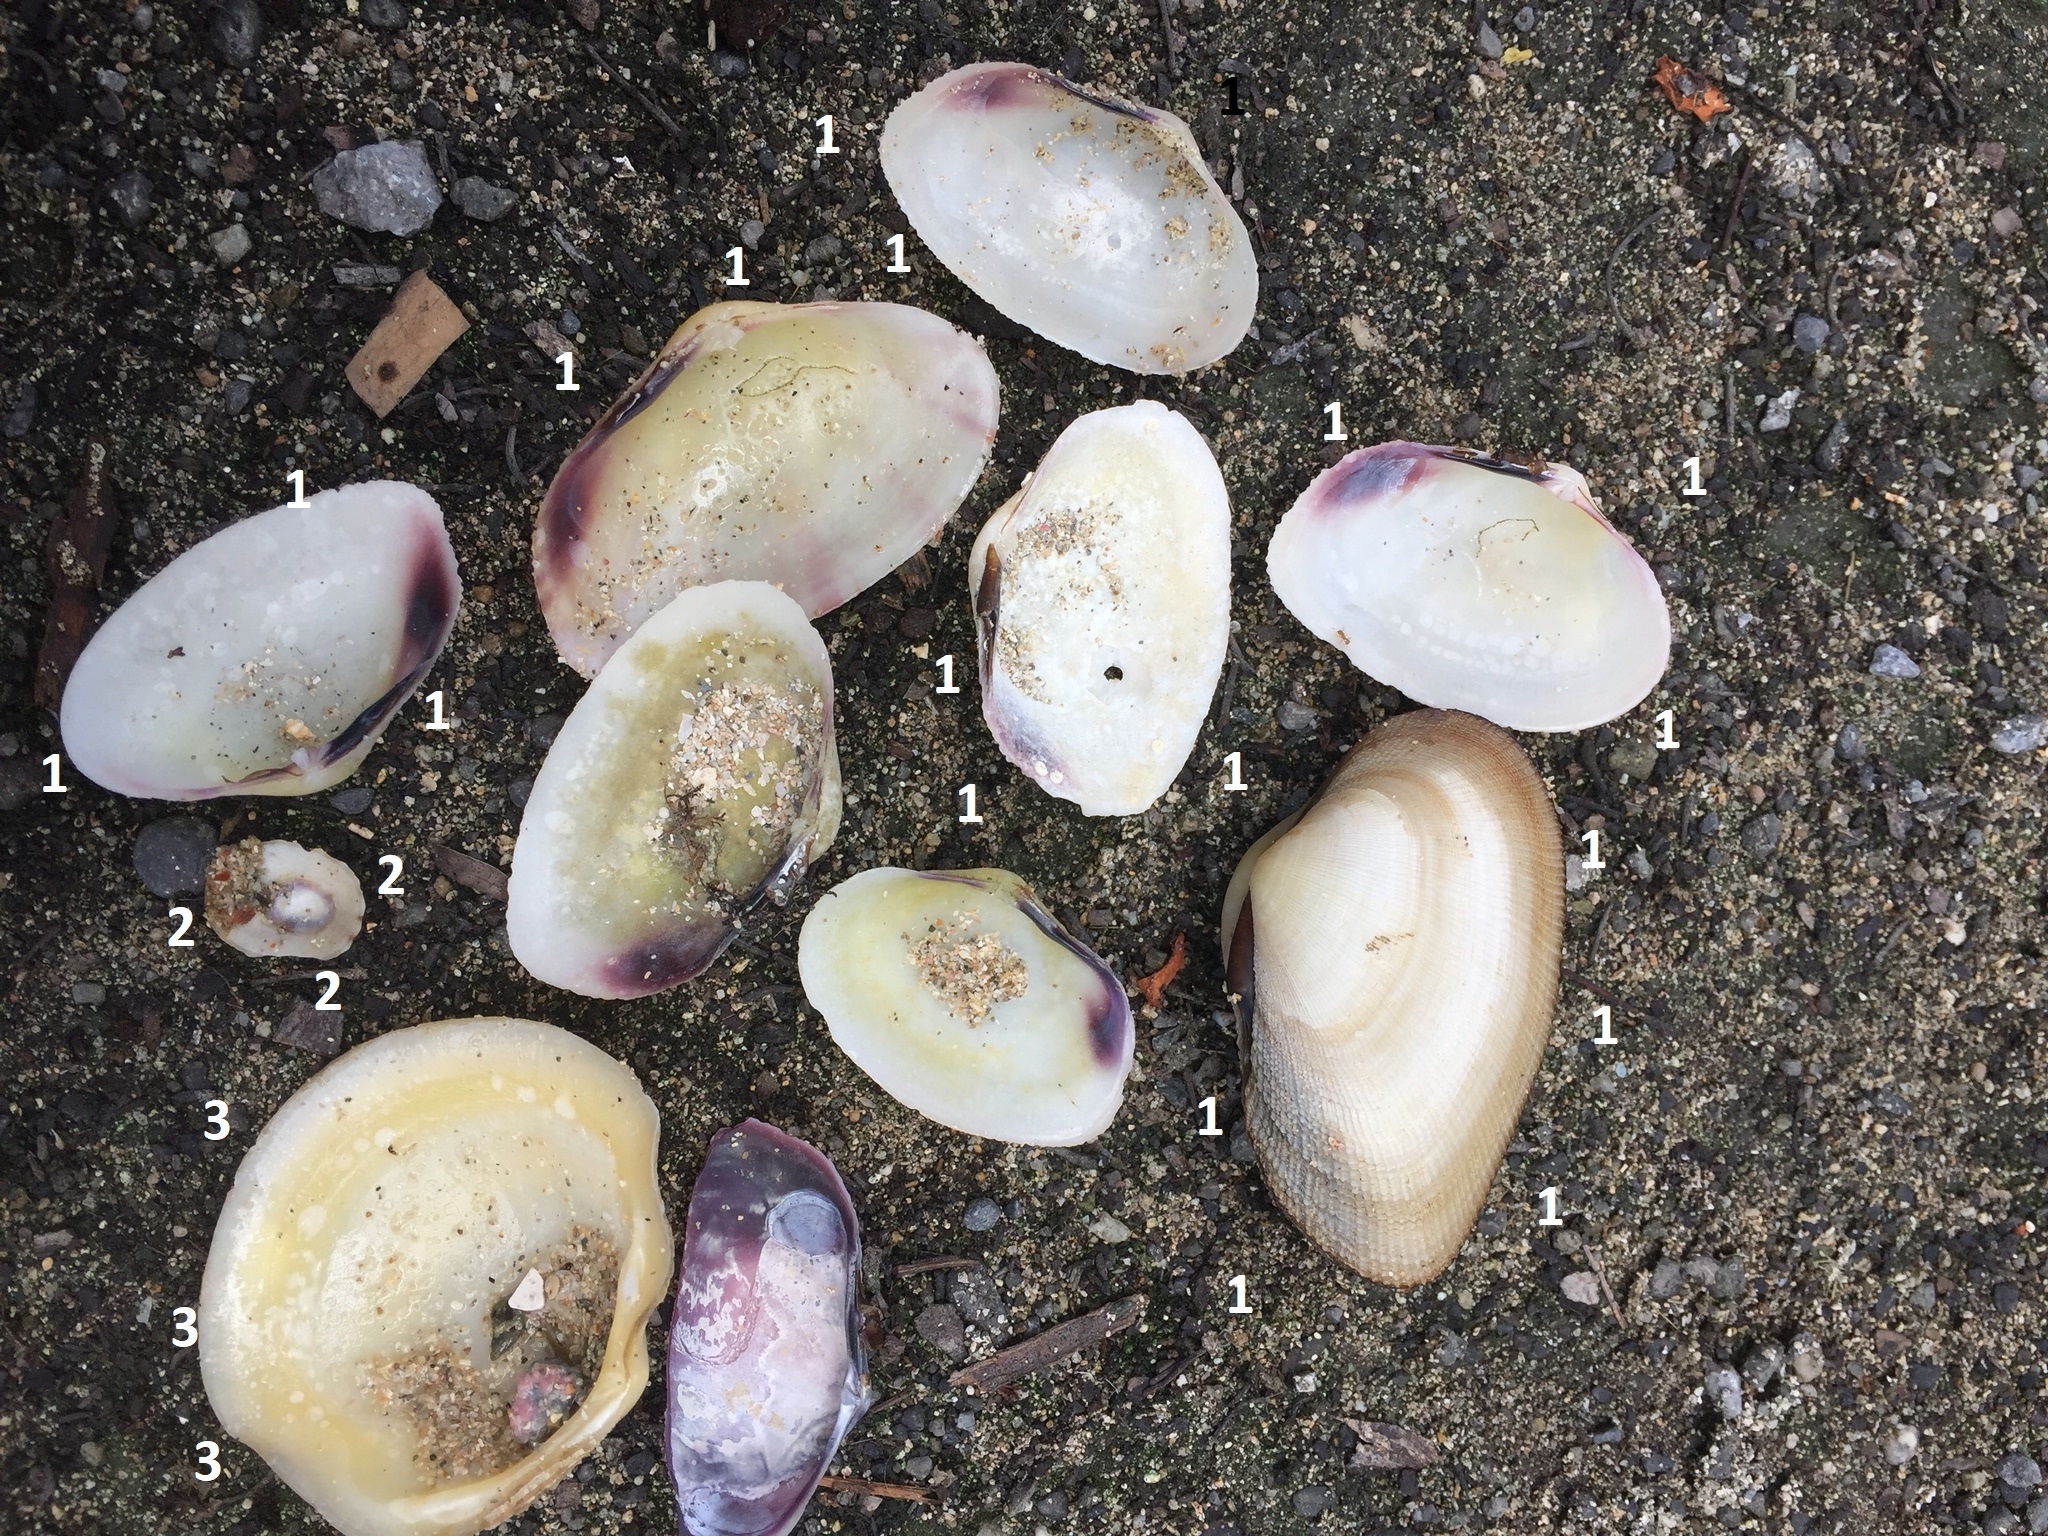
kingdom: Animalia
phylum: Mollusca
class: Bivalvia
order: Cardiida
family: Psammobiidae
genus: Asaphis
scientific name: Asaphis deflorata
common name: Gaudy asaphis
